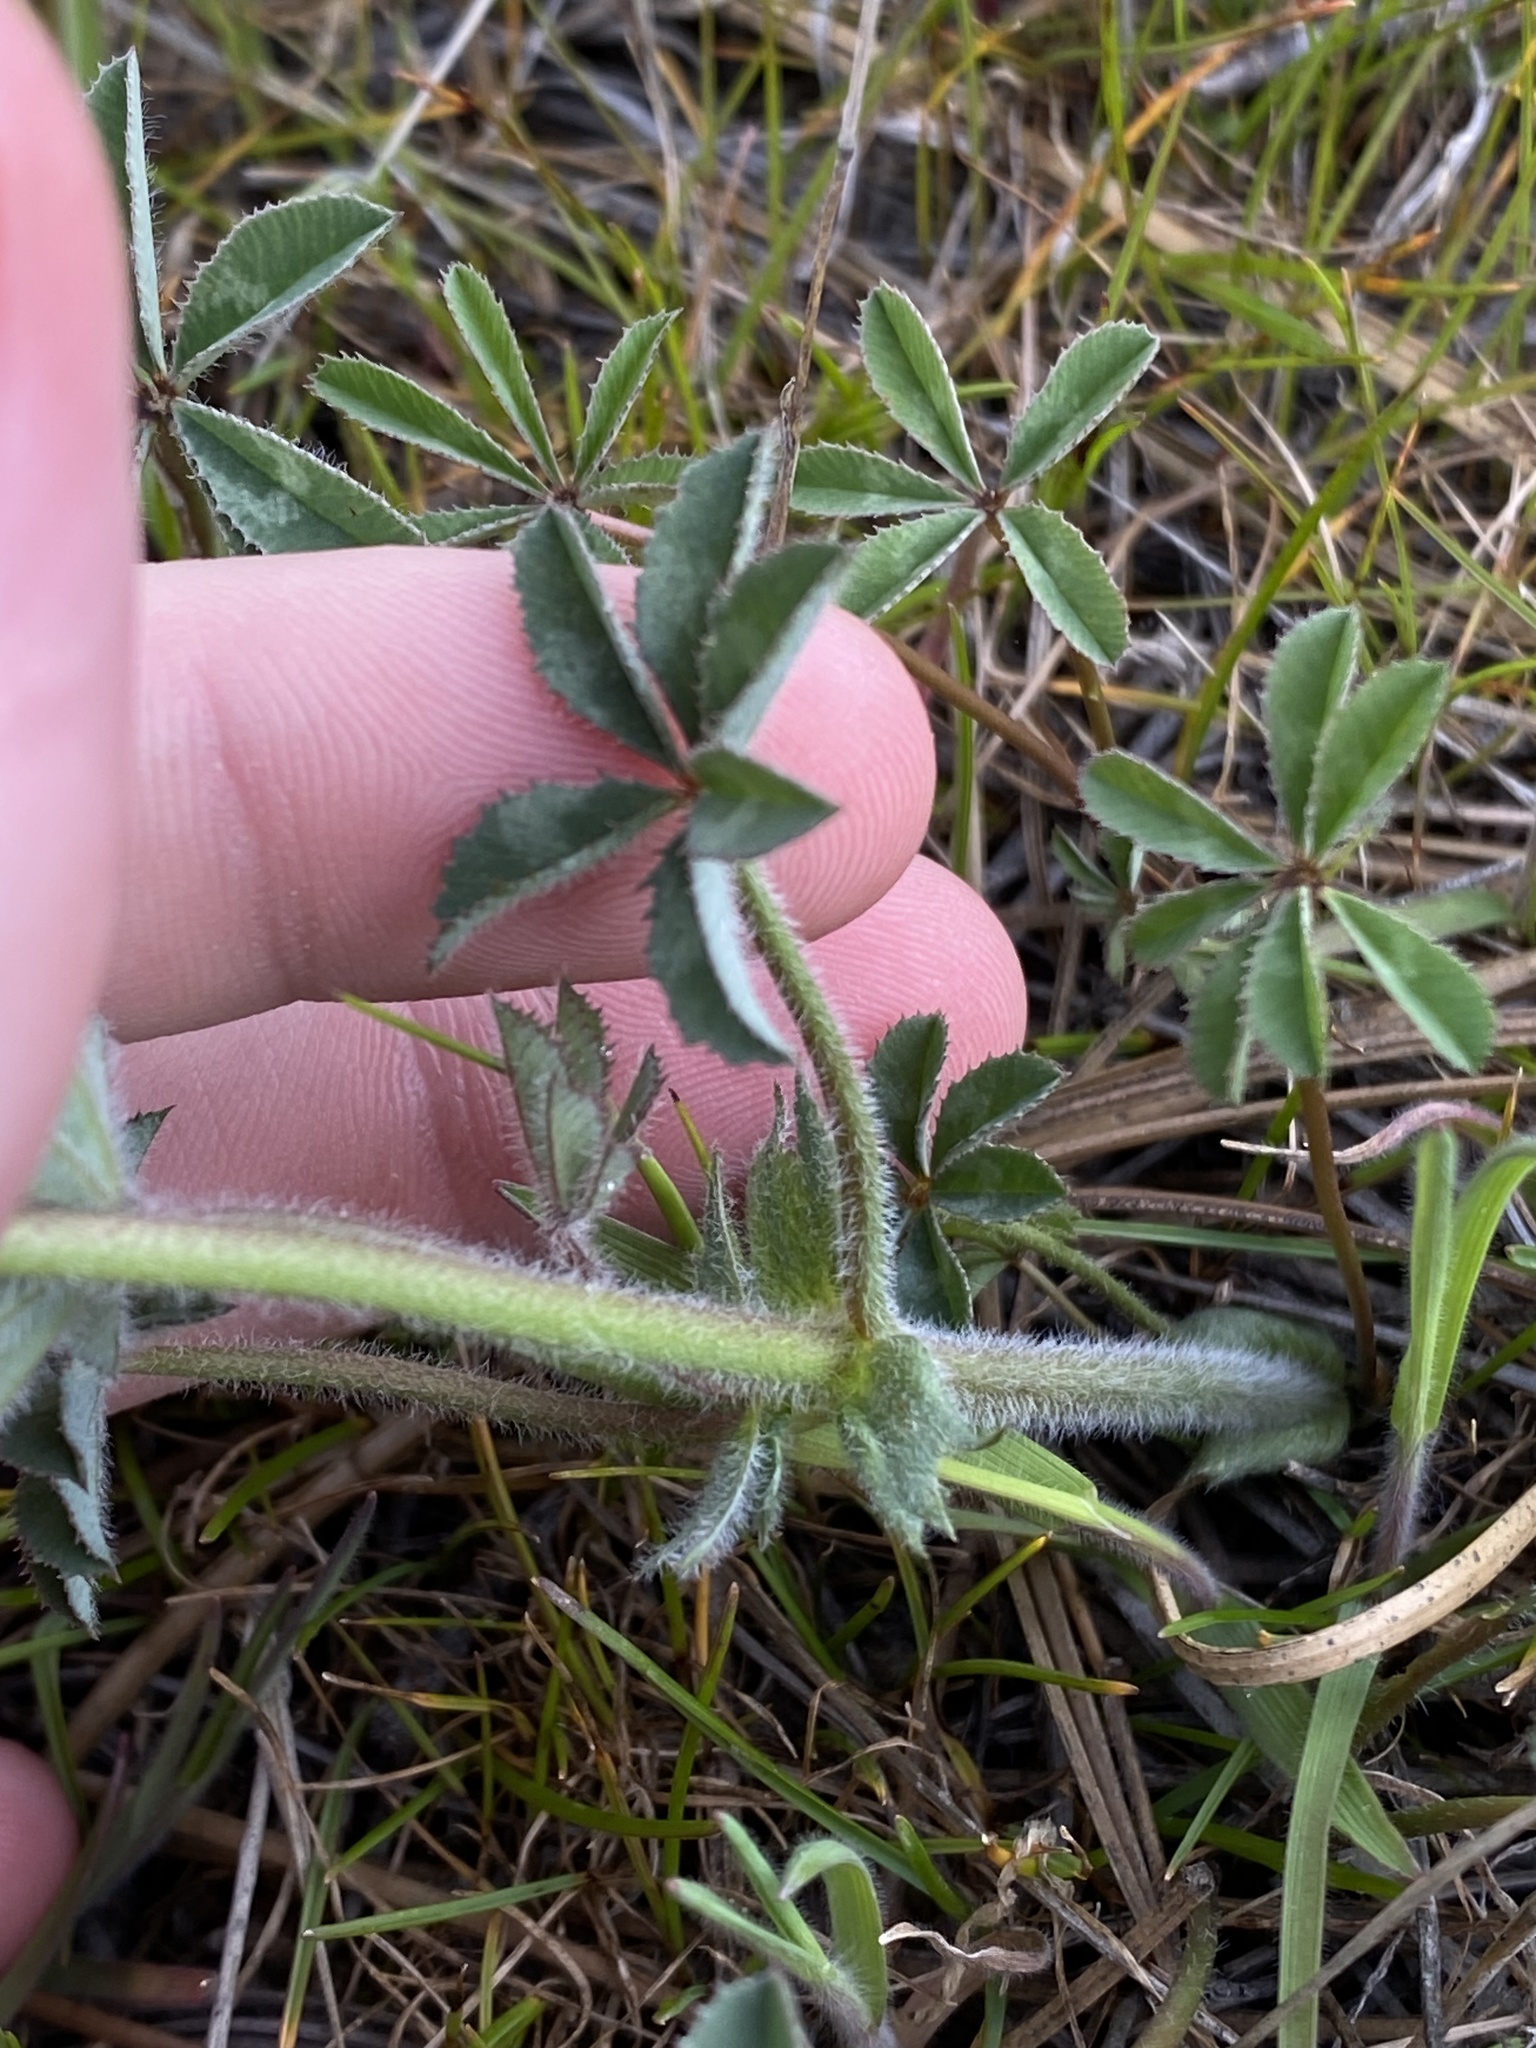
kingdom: Plantae
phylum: Tracheophyta
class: Magnoliopsida
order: Fabales
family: Fabaceae
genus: Trifolium
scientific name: Trifolium macrocephalum
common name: Large-head clover
